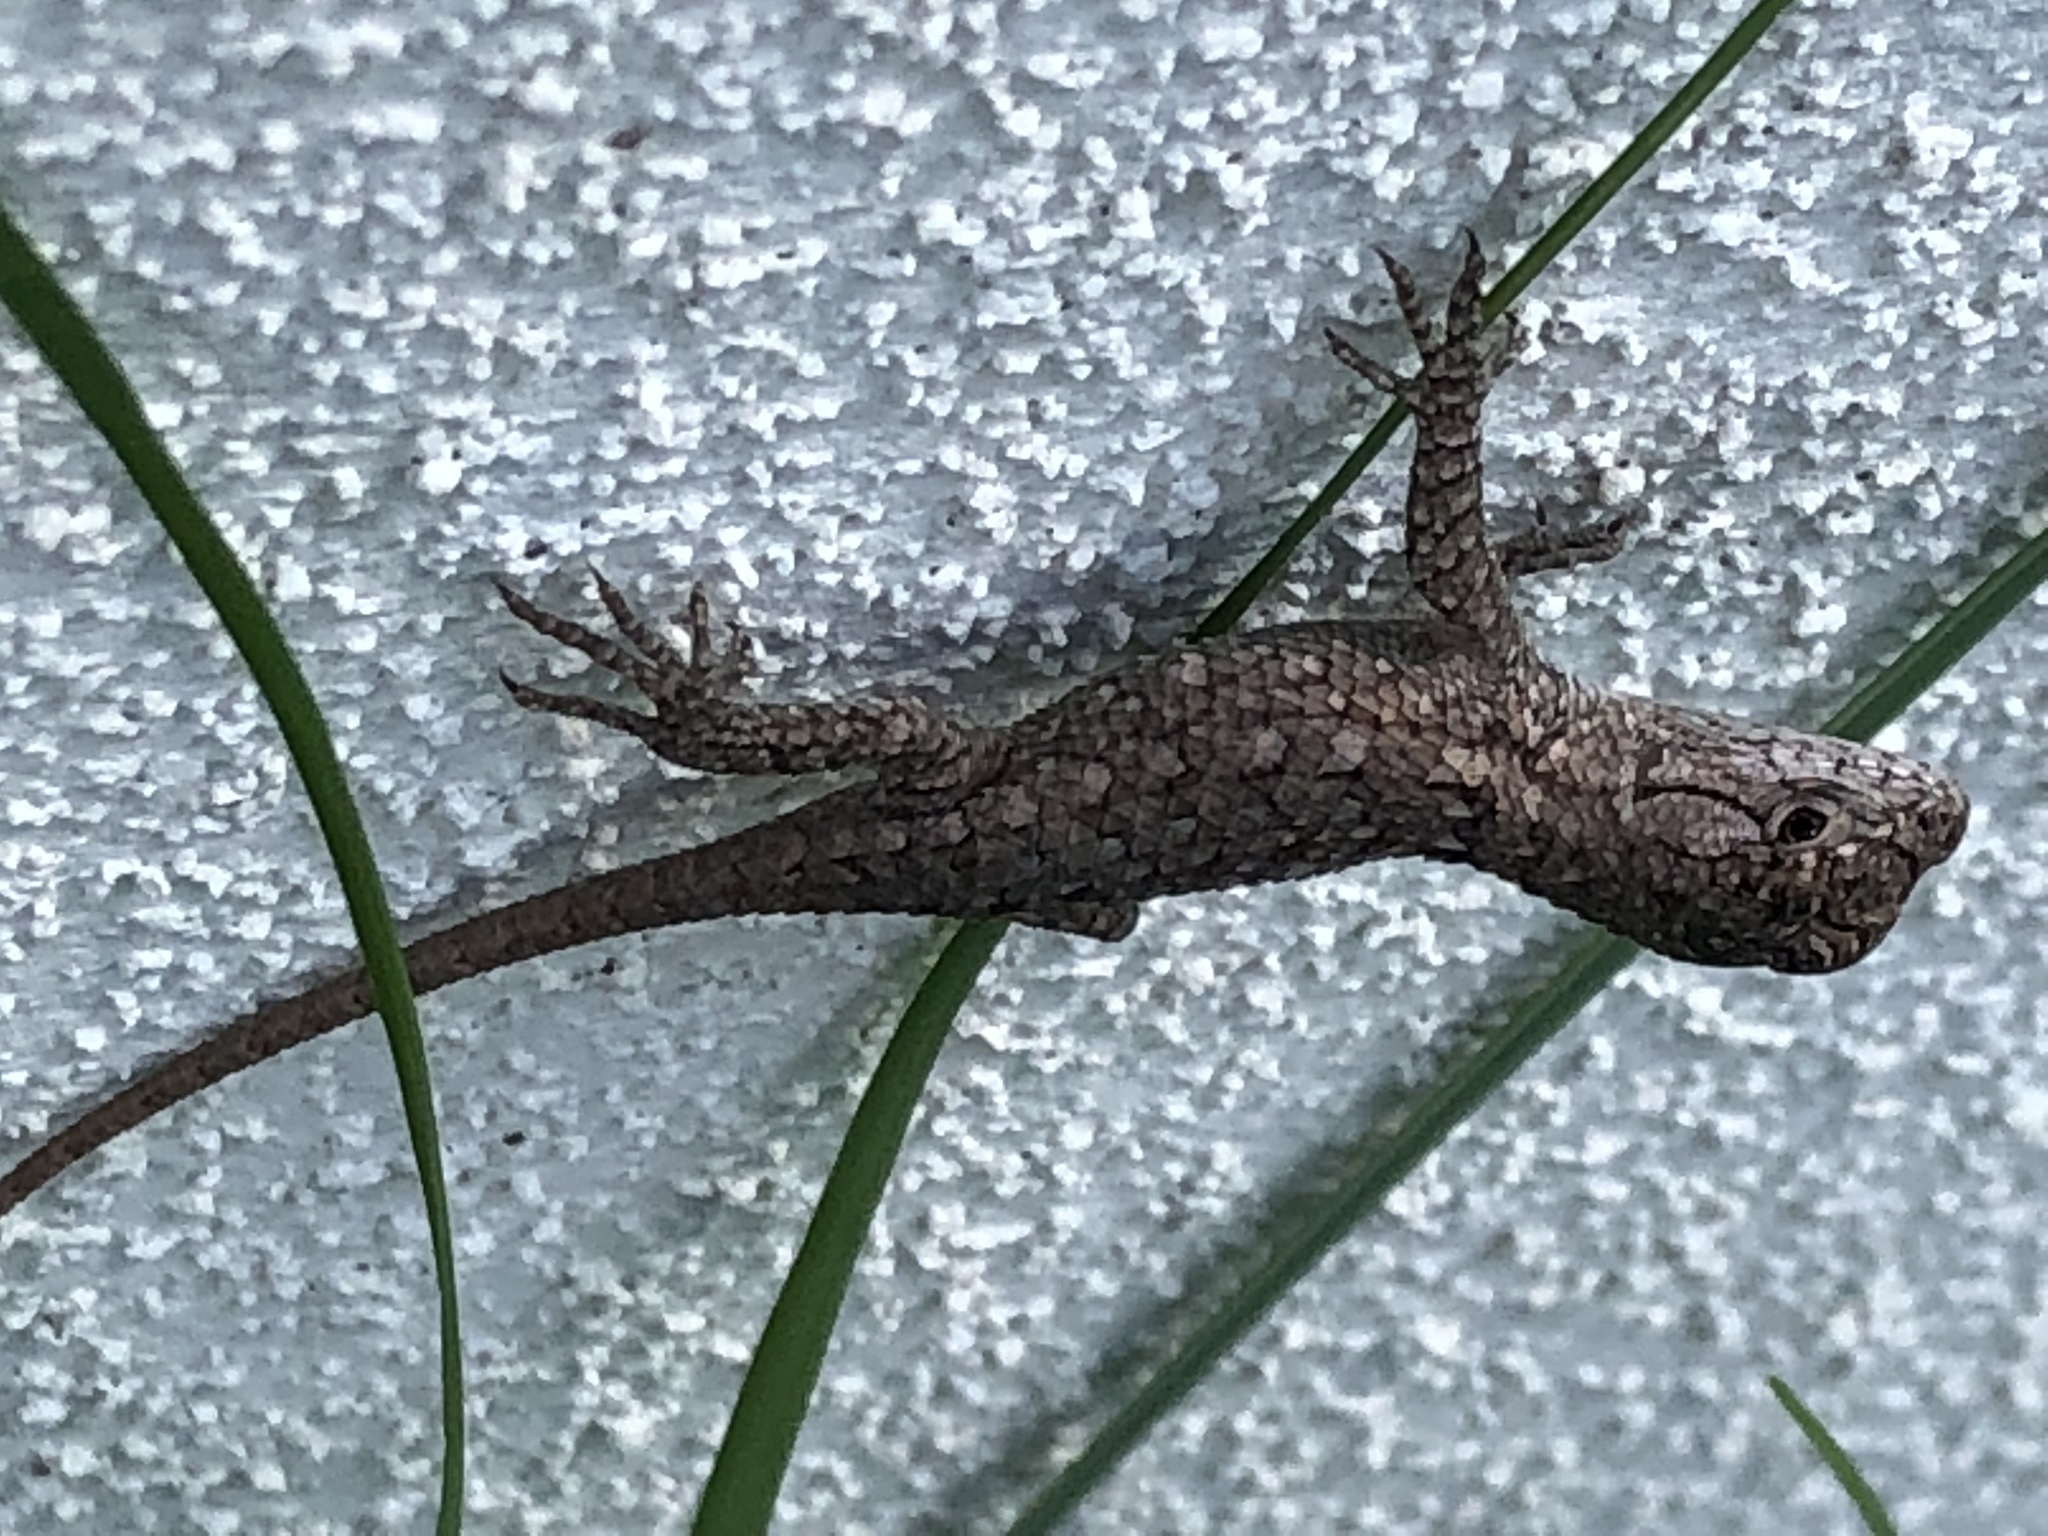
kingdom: Animalia
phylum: Chordata
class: Squamata
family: Phrynosomatidae
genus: Sceloporus
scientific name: Sceloporus olivaceus
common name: Texas spiny lizard
